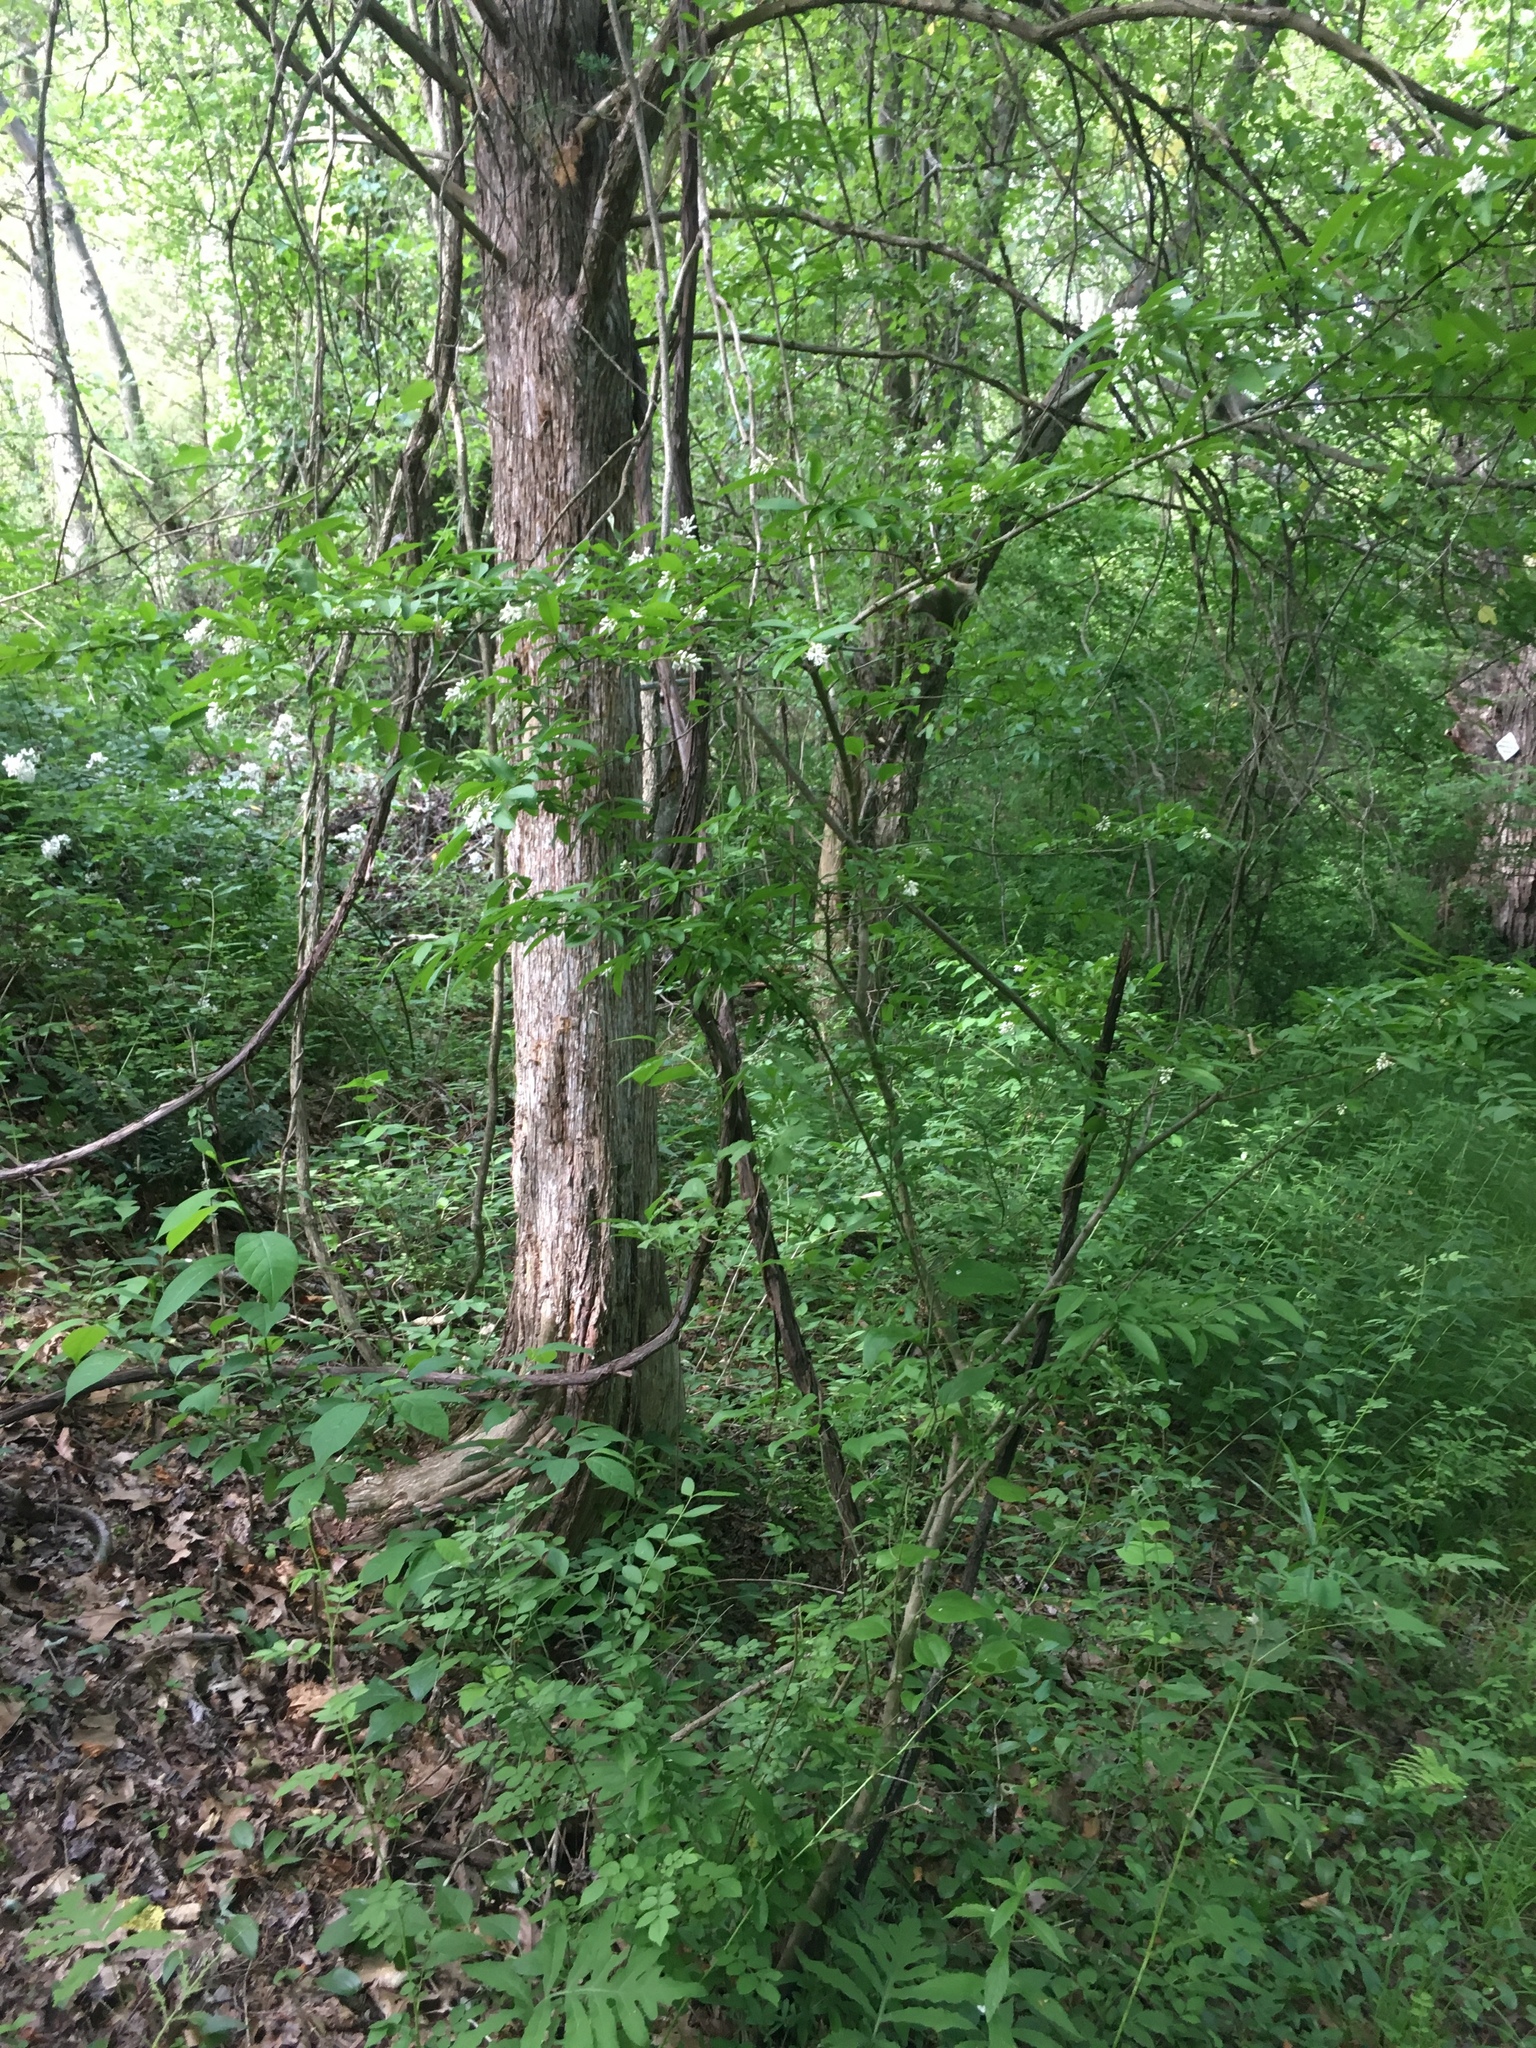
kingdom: Plantae
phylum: Tracheophyta
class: Magnoliopsida
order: Lamiales
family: Oleaceae
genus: Ligustrum
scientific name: Ligustrum obtusifolium
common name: Border privet
